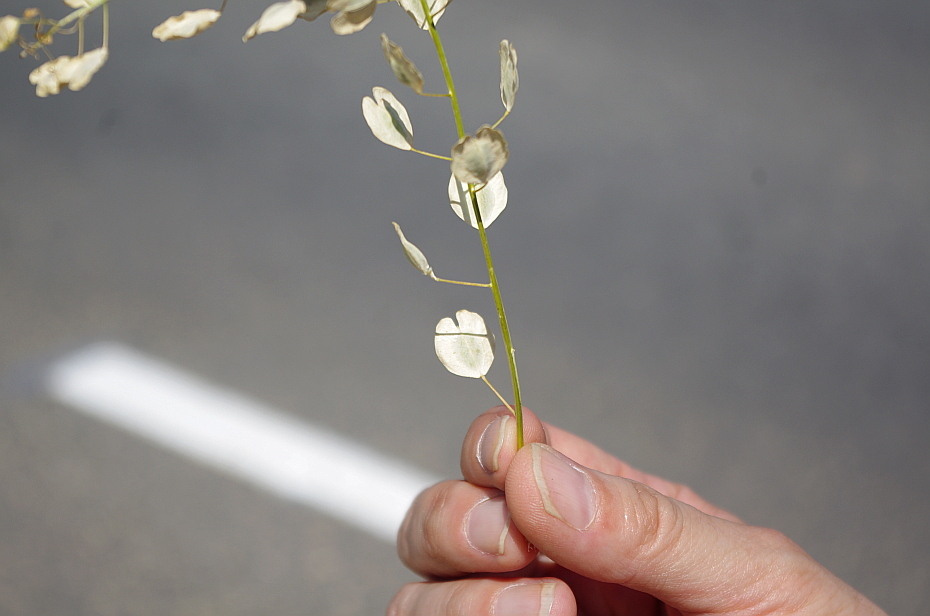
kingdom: Plantae
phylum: Tracheophyta
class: Magnoliopsida
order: Brassicales
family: Brassicaceae
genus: Thlaspi
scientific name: Thlaspi arvense
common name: Field pennycress
